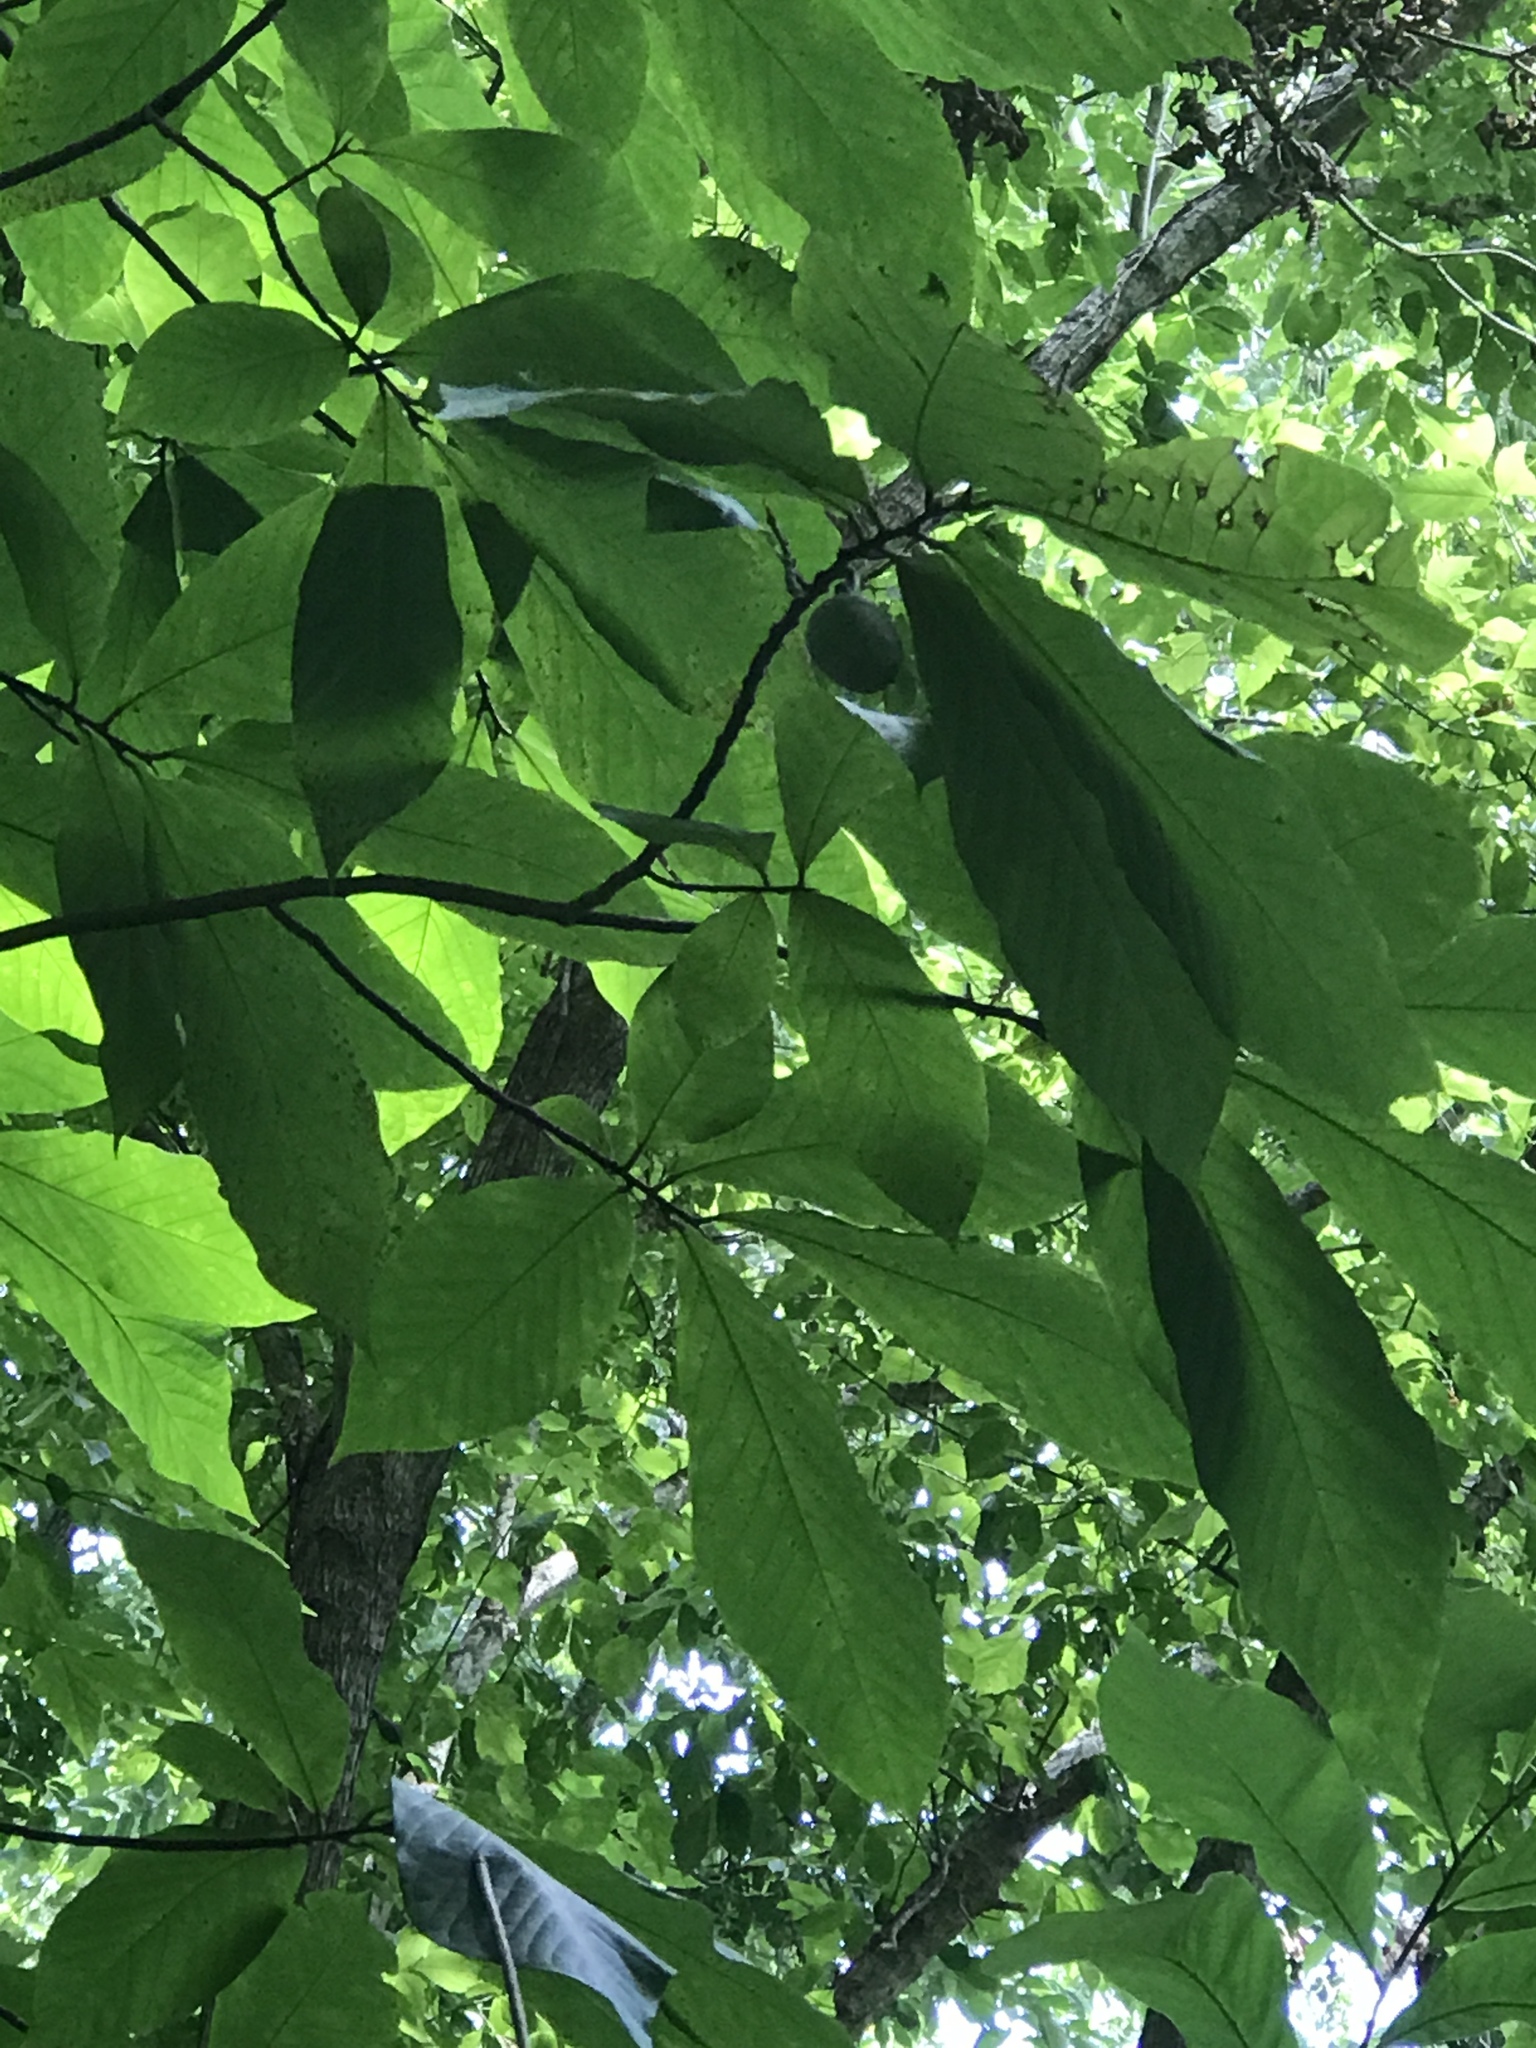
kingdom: Plantae
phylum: Tracheophyta
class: Magnoliopsida
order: Magnoliales
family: Annonaceae
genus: Asimina
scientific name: Asimina triloba
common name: Dog-banana
